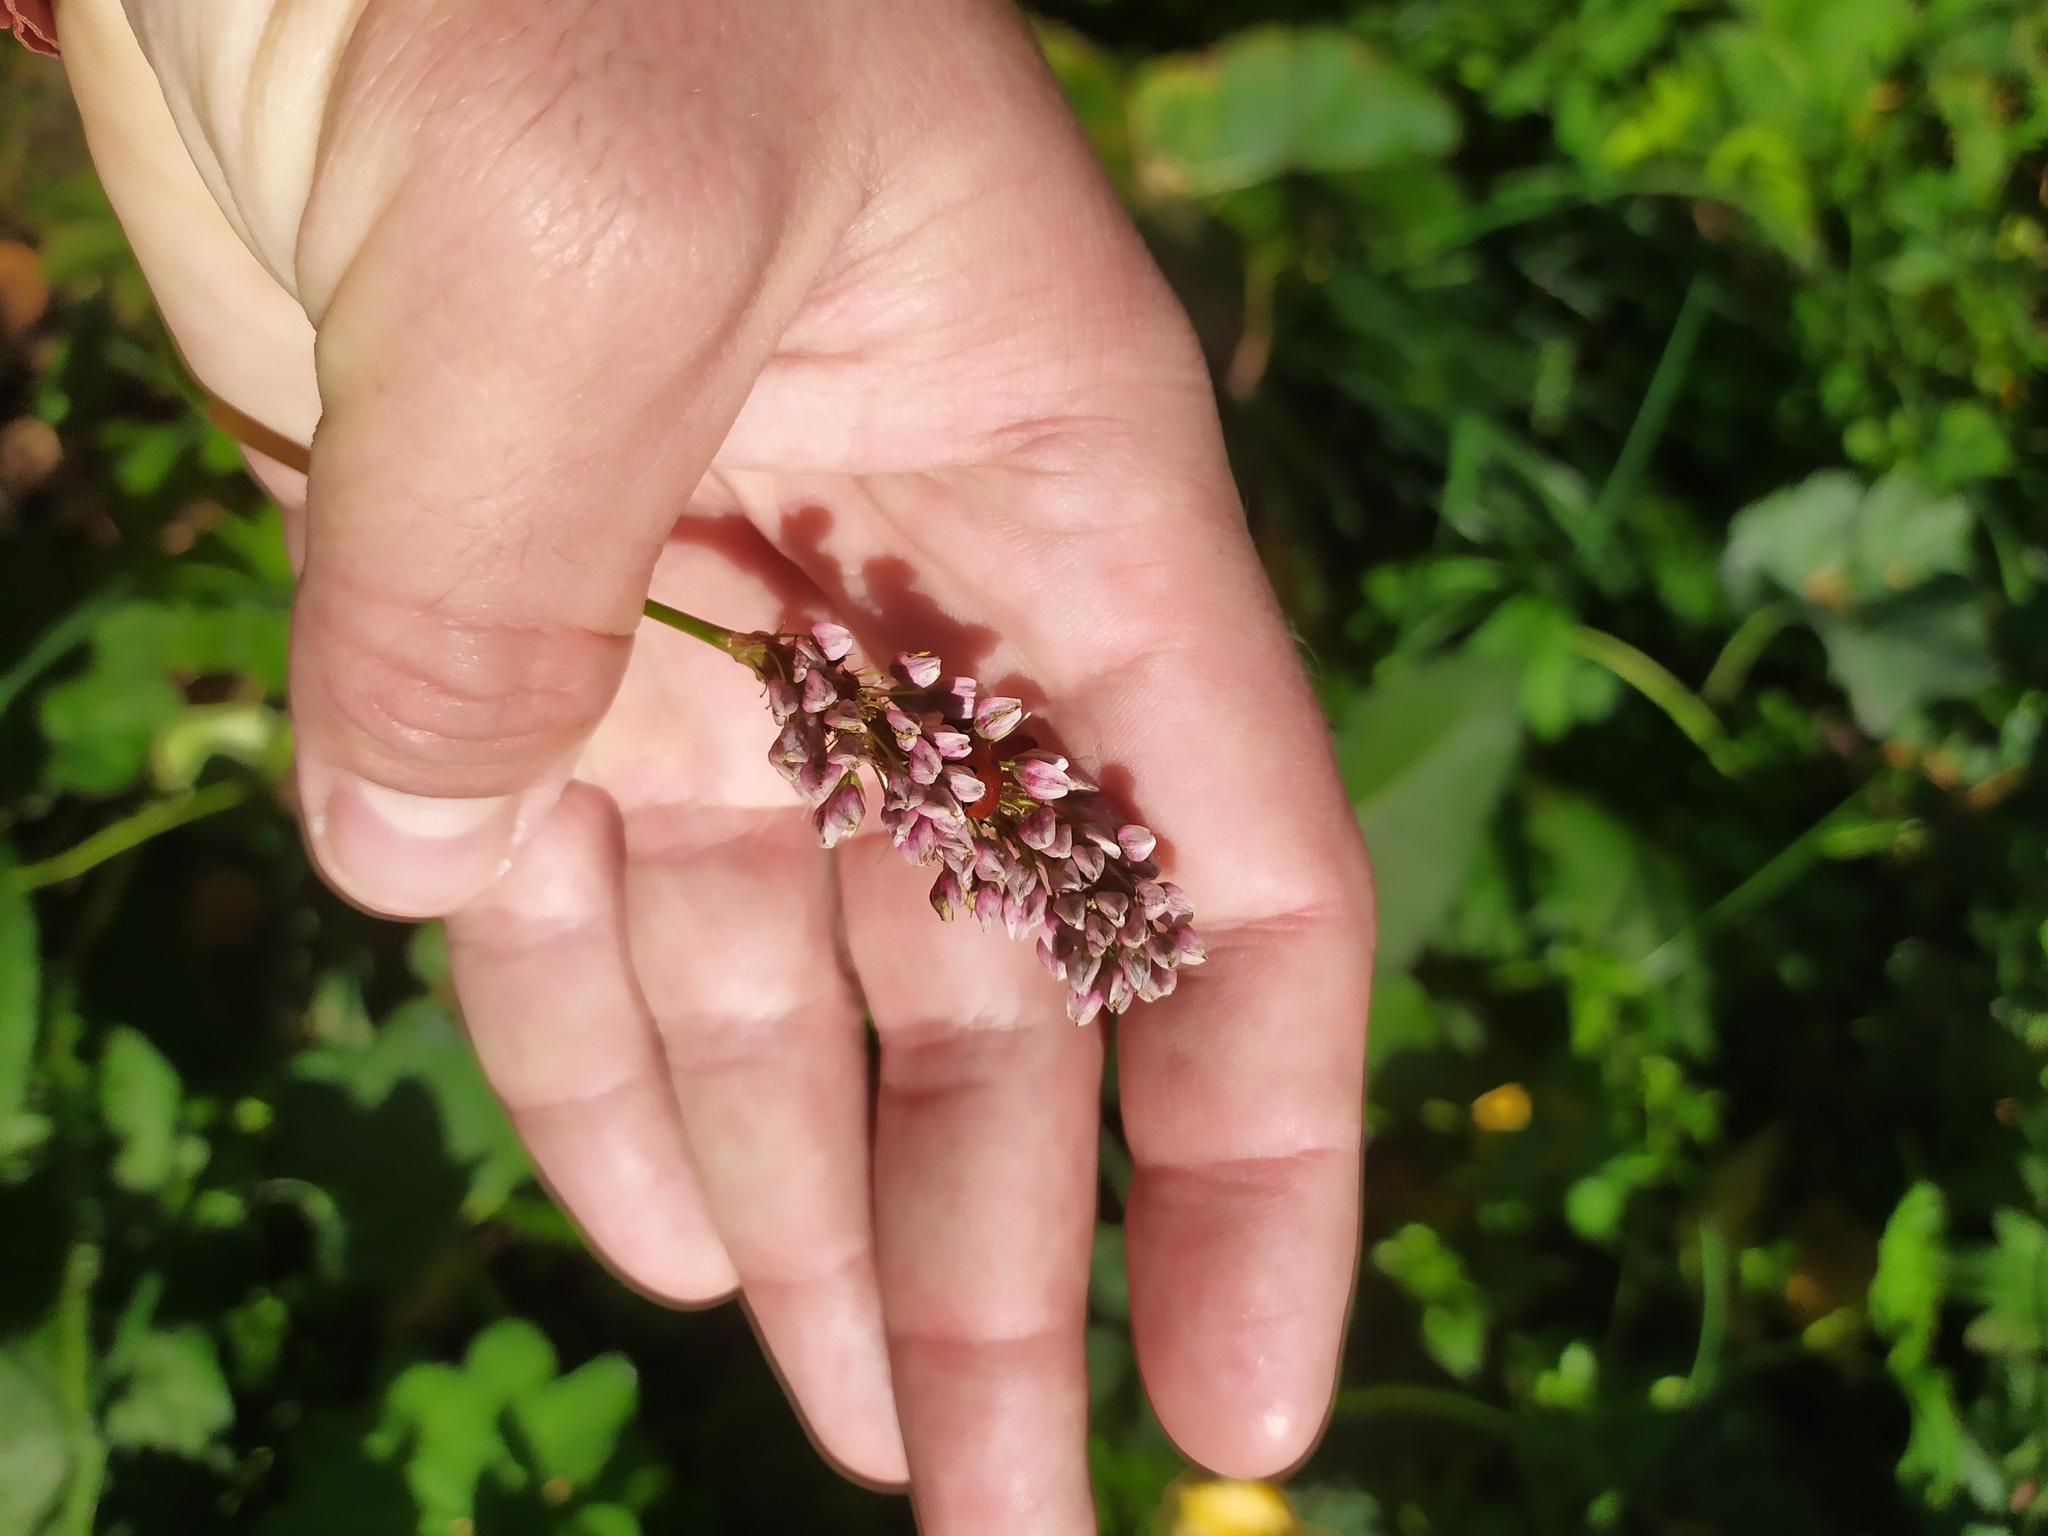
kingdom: Plantae
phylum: Tracheophyta
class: Magnoliopsida
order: Caryophyllales
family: Polygonaceae
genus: Bistorta
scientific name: Bistorta officinalis
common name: Common bistort
